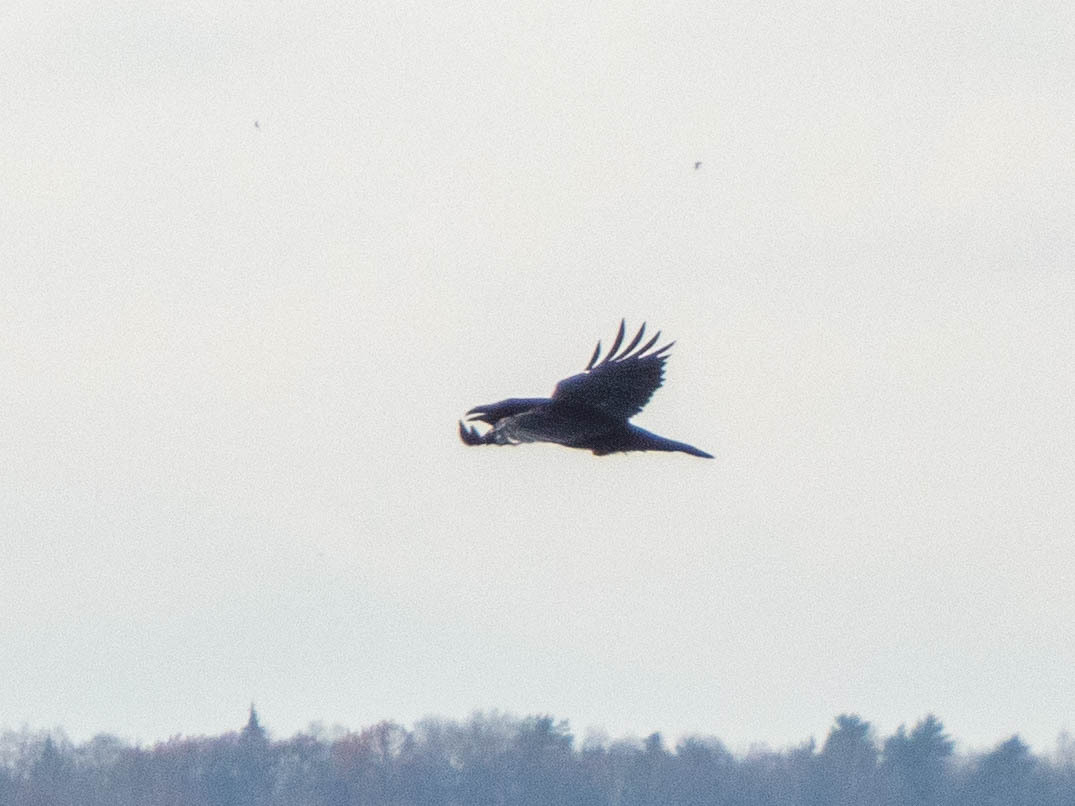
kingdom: Animalia
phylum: Chordata
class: Aves
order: Passeriformes
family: Corvidae
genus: Corvus
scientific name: Corvus corax
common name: Common raven
